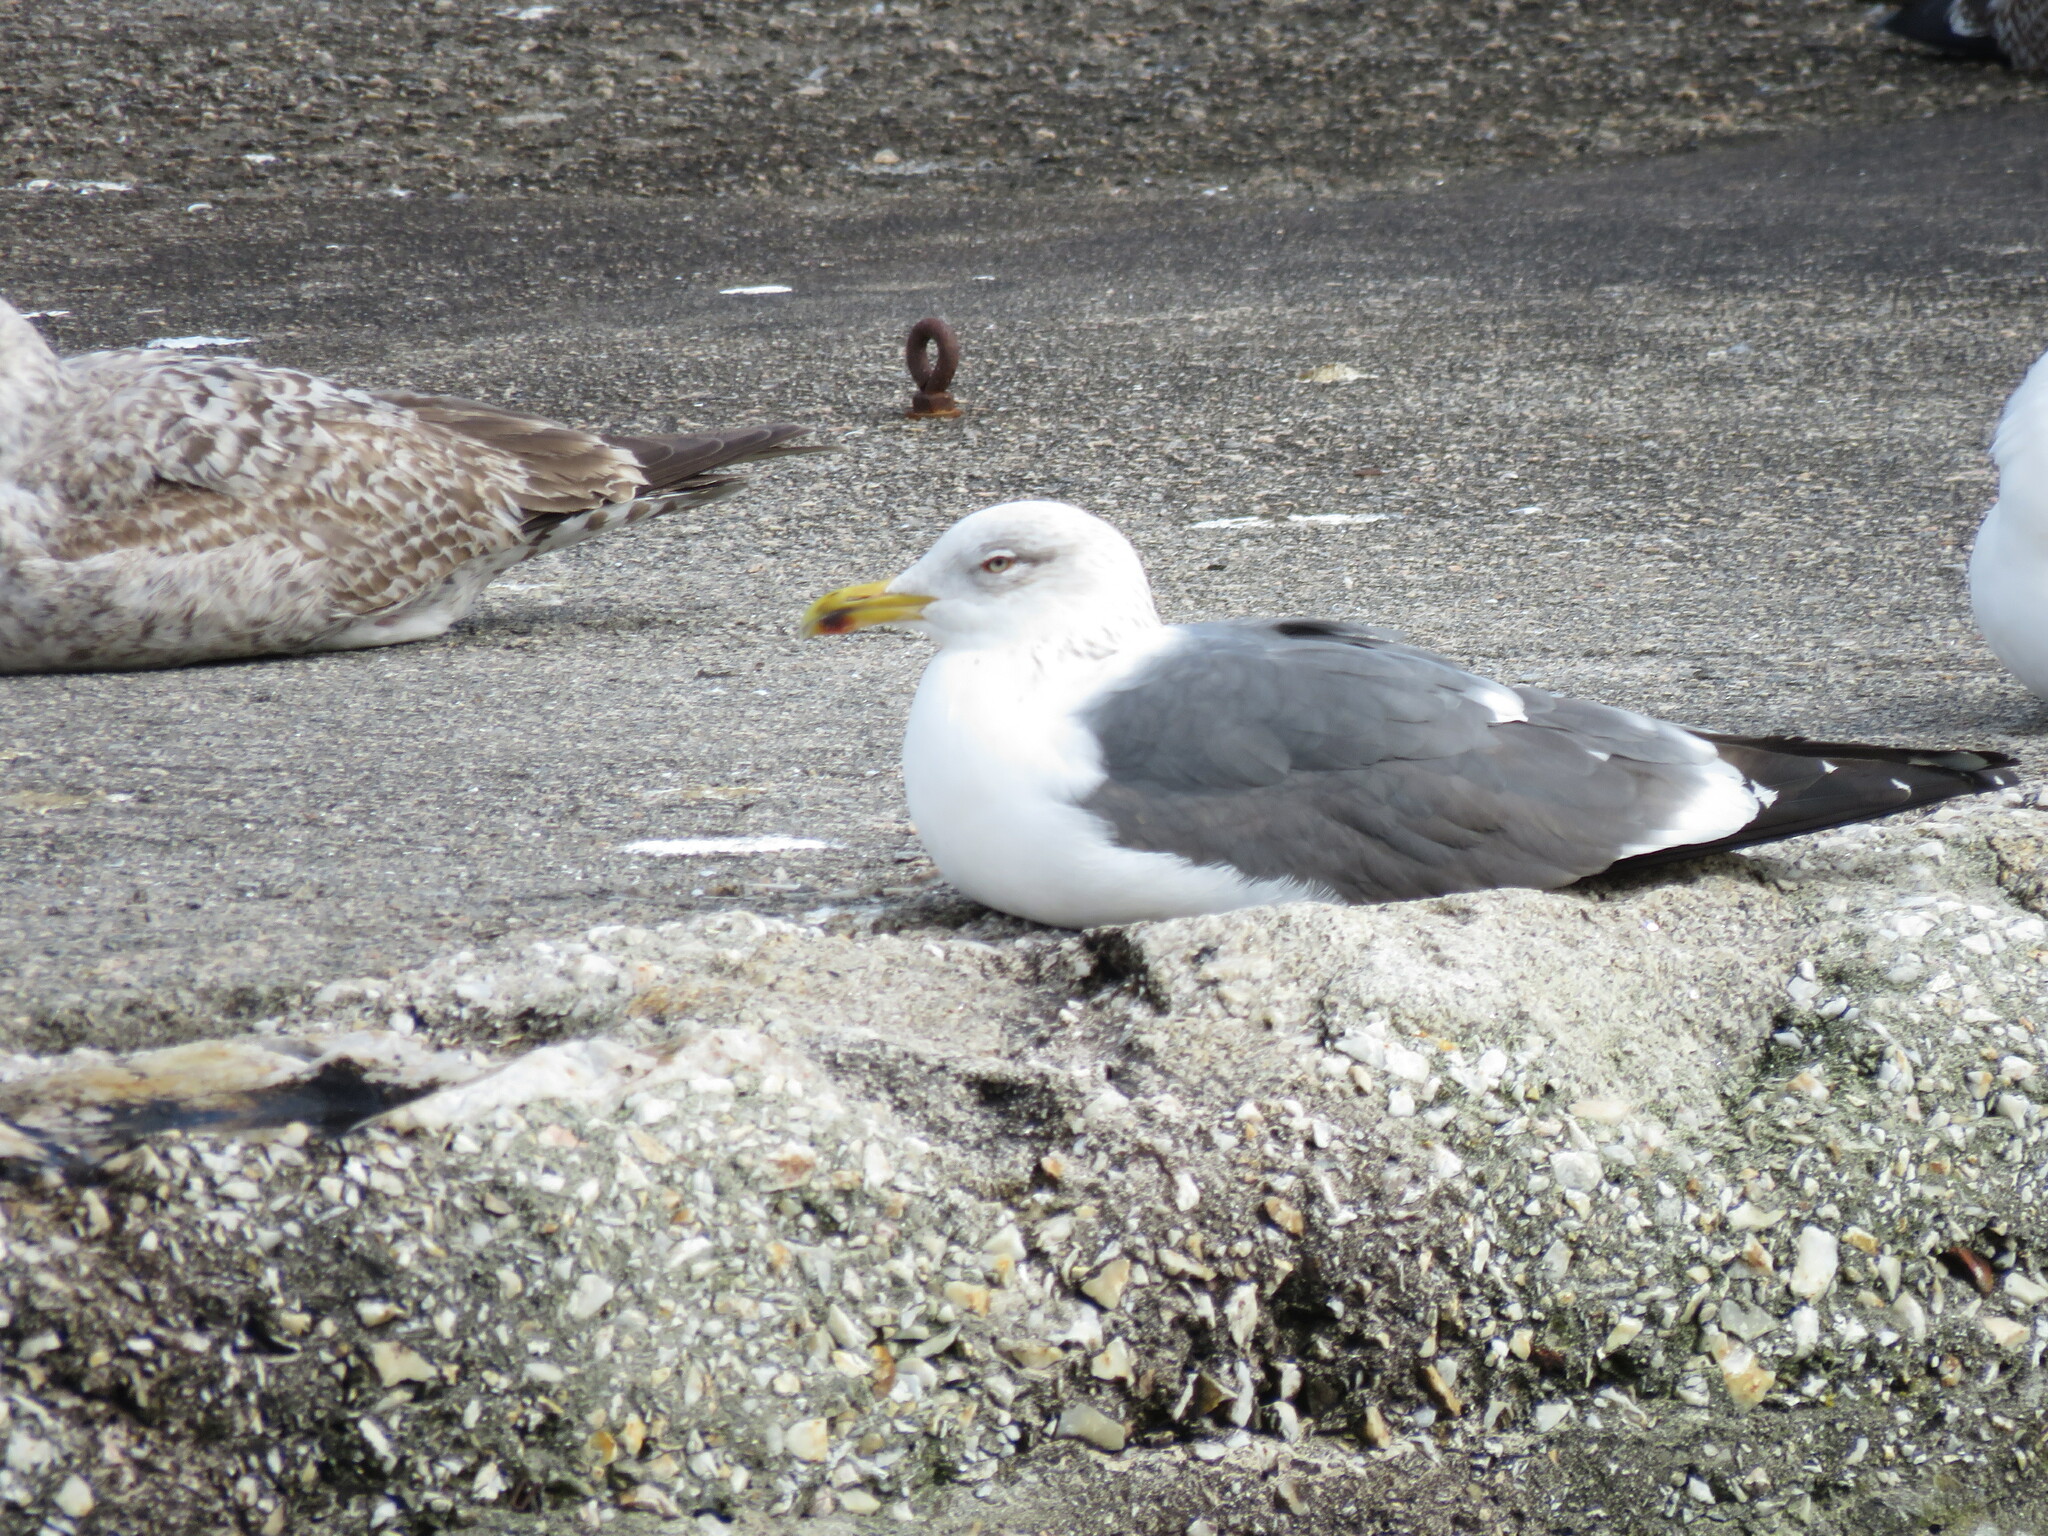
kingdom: Animalia
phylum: Chordata
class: Aves
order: Charadriiformes
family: Laridae
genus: Larus
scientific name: Larus fuscus
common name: Lesser black-backed gull
